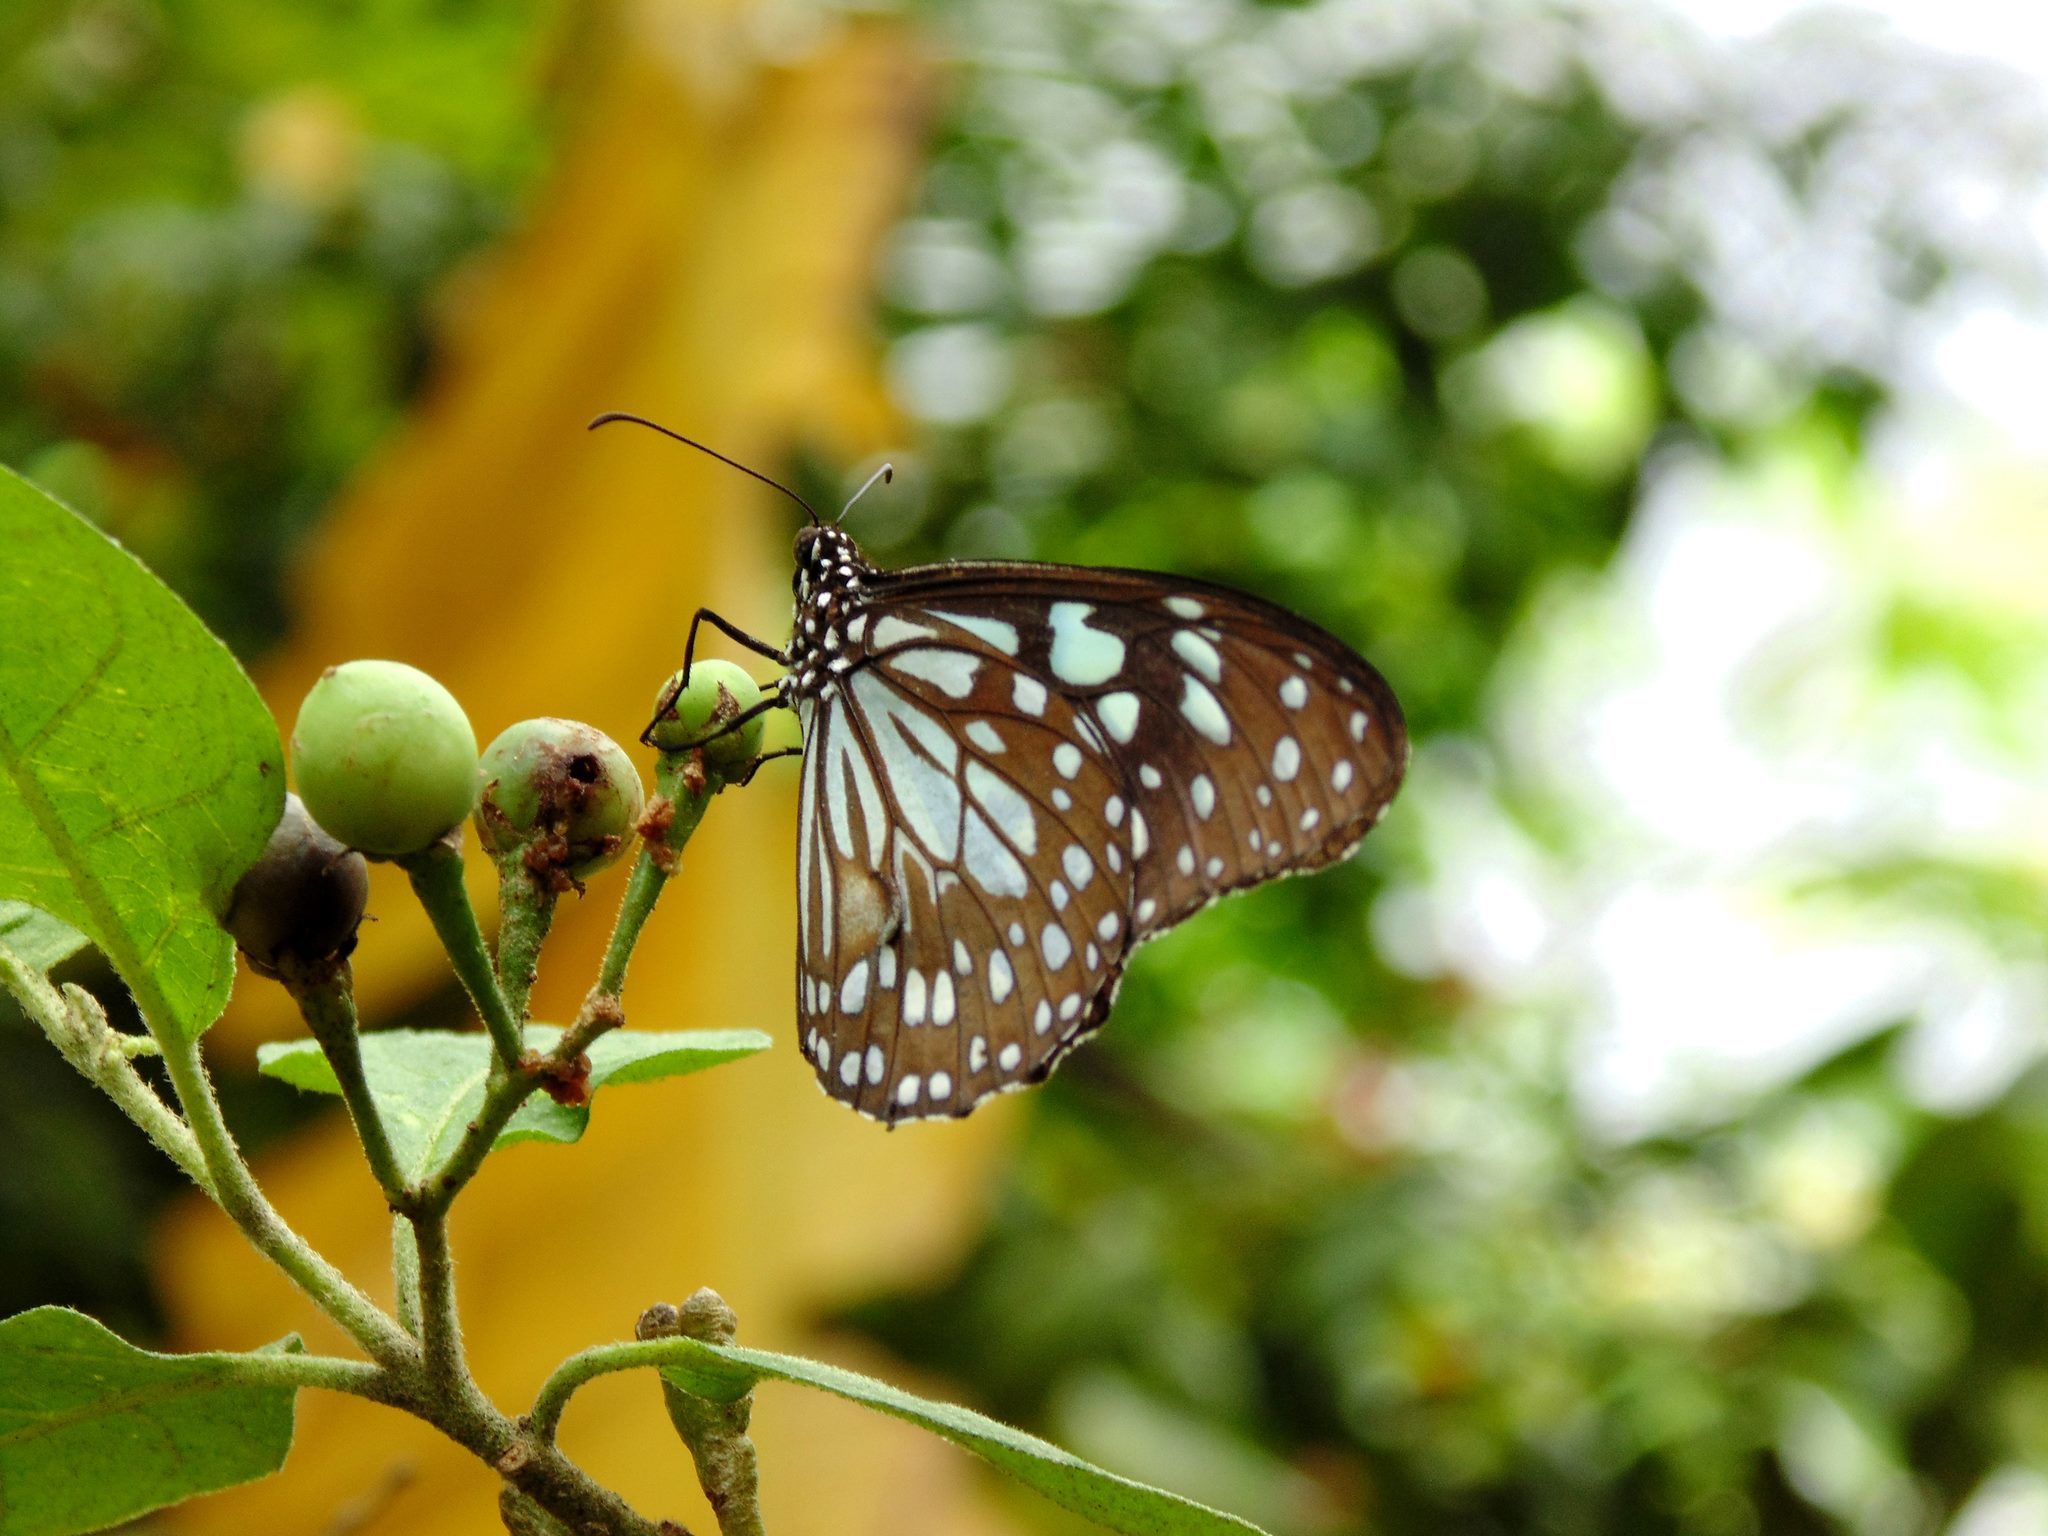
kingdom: Animalia
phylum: Arthropoda
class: Insecta
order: Lepidoptera
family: Nymphalidae
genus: Tirumala
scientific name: Tirumala limniace
